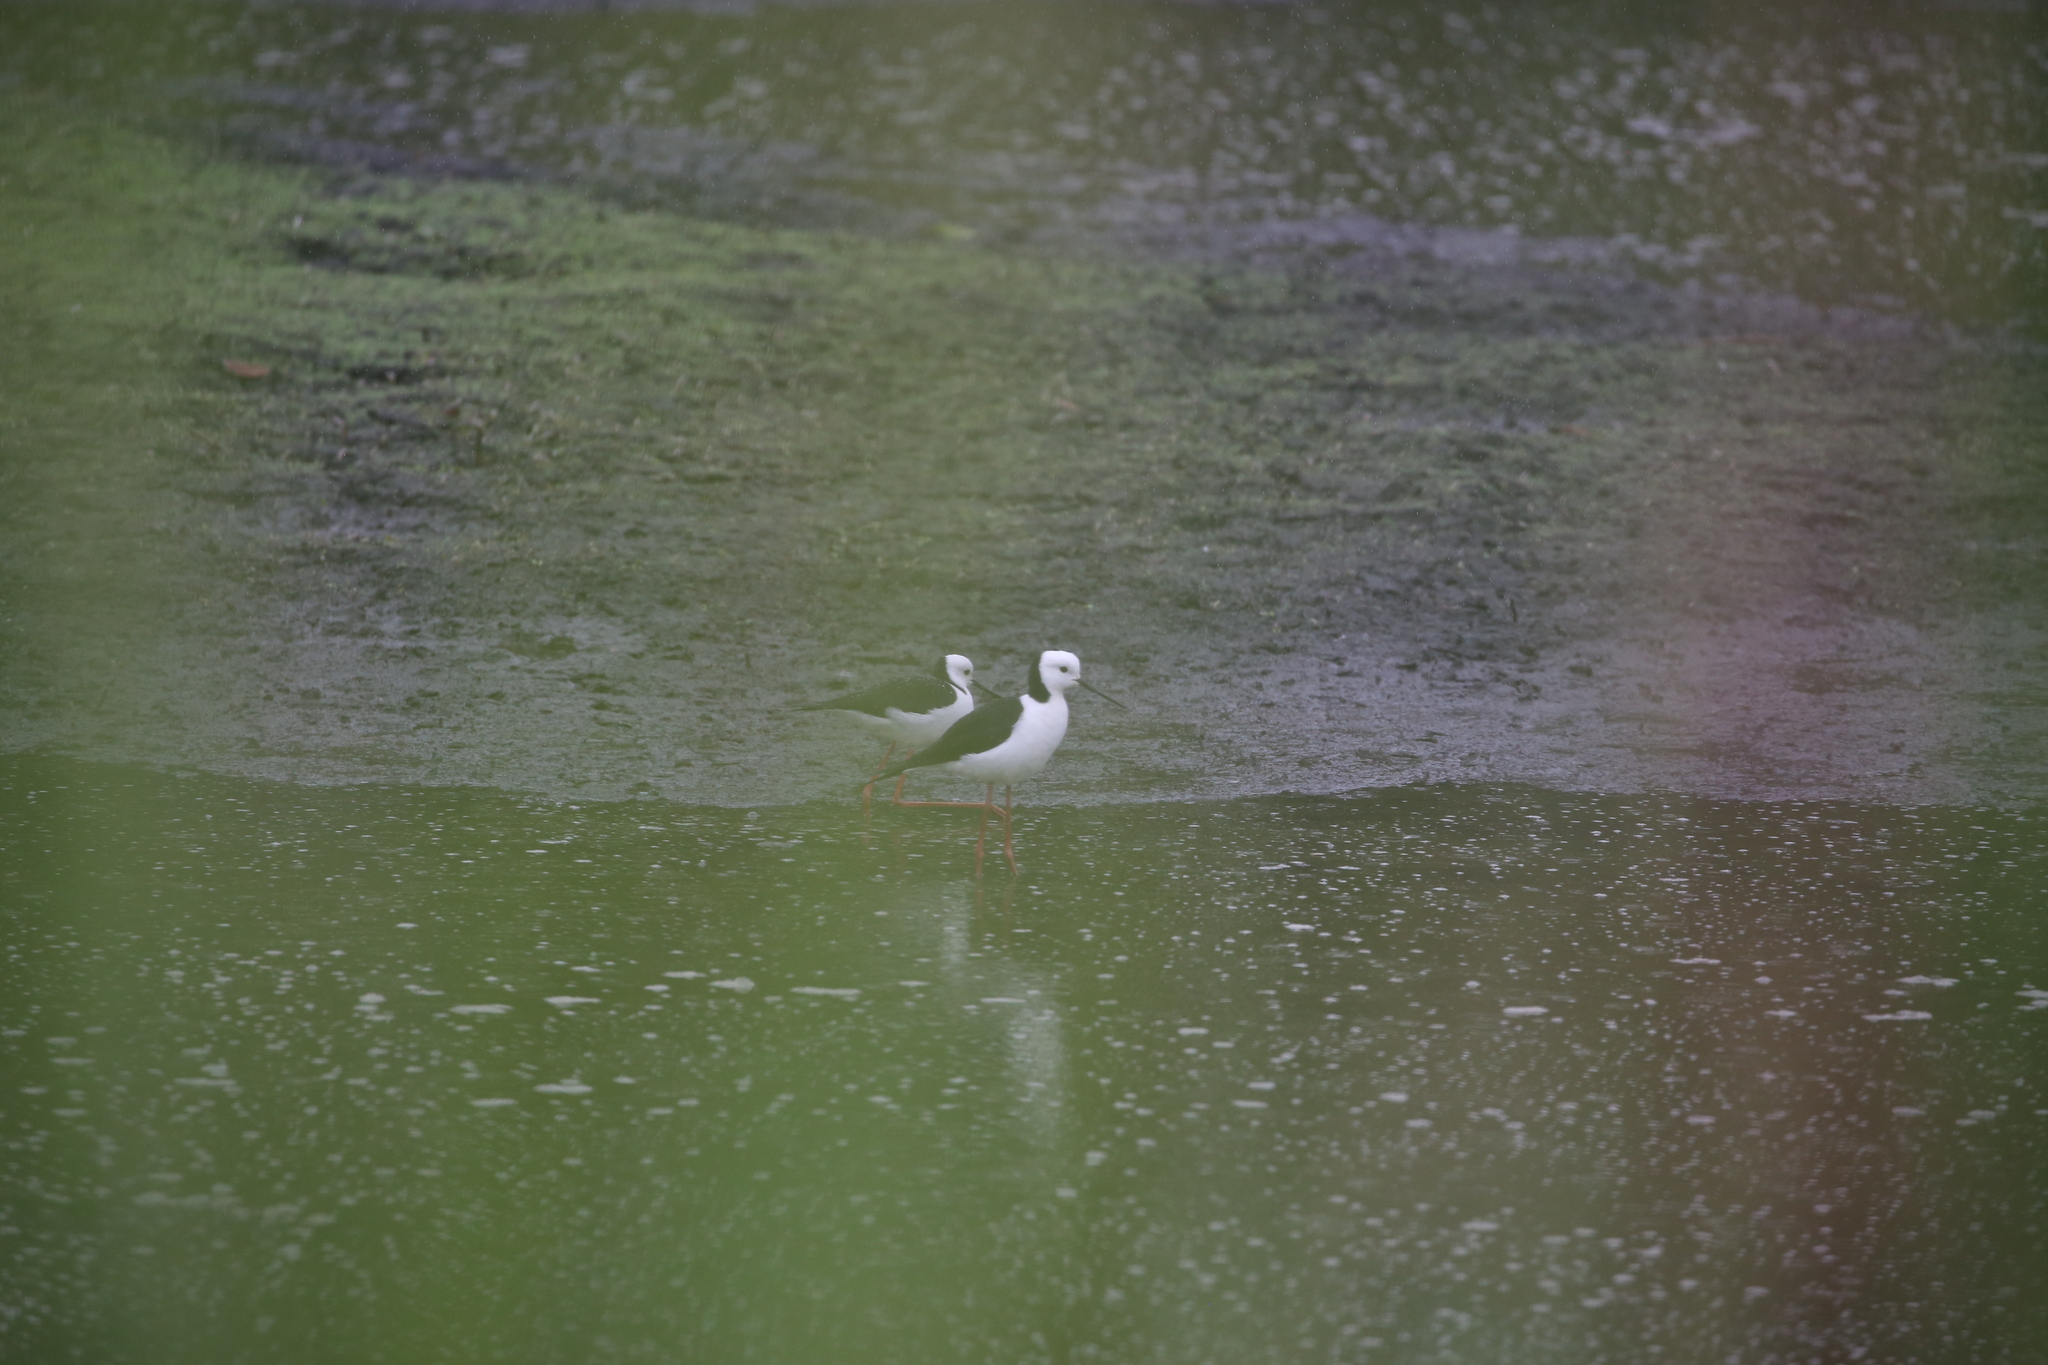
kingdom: Animalia
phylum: Chordata
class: Aves
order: Charadriiformes
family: Recurvirostridae
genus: Himantopus
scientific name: Himantopus leucocephalus
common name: White-headed stilt
